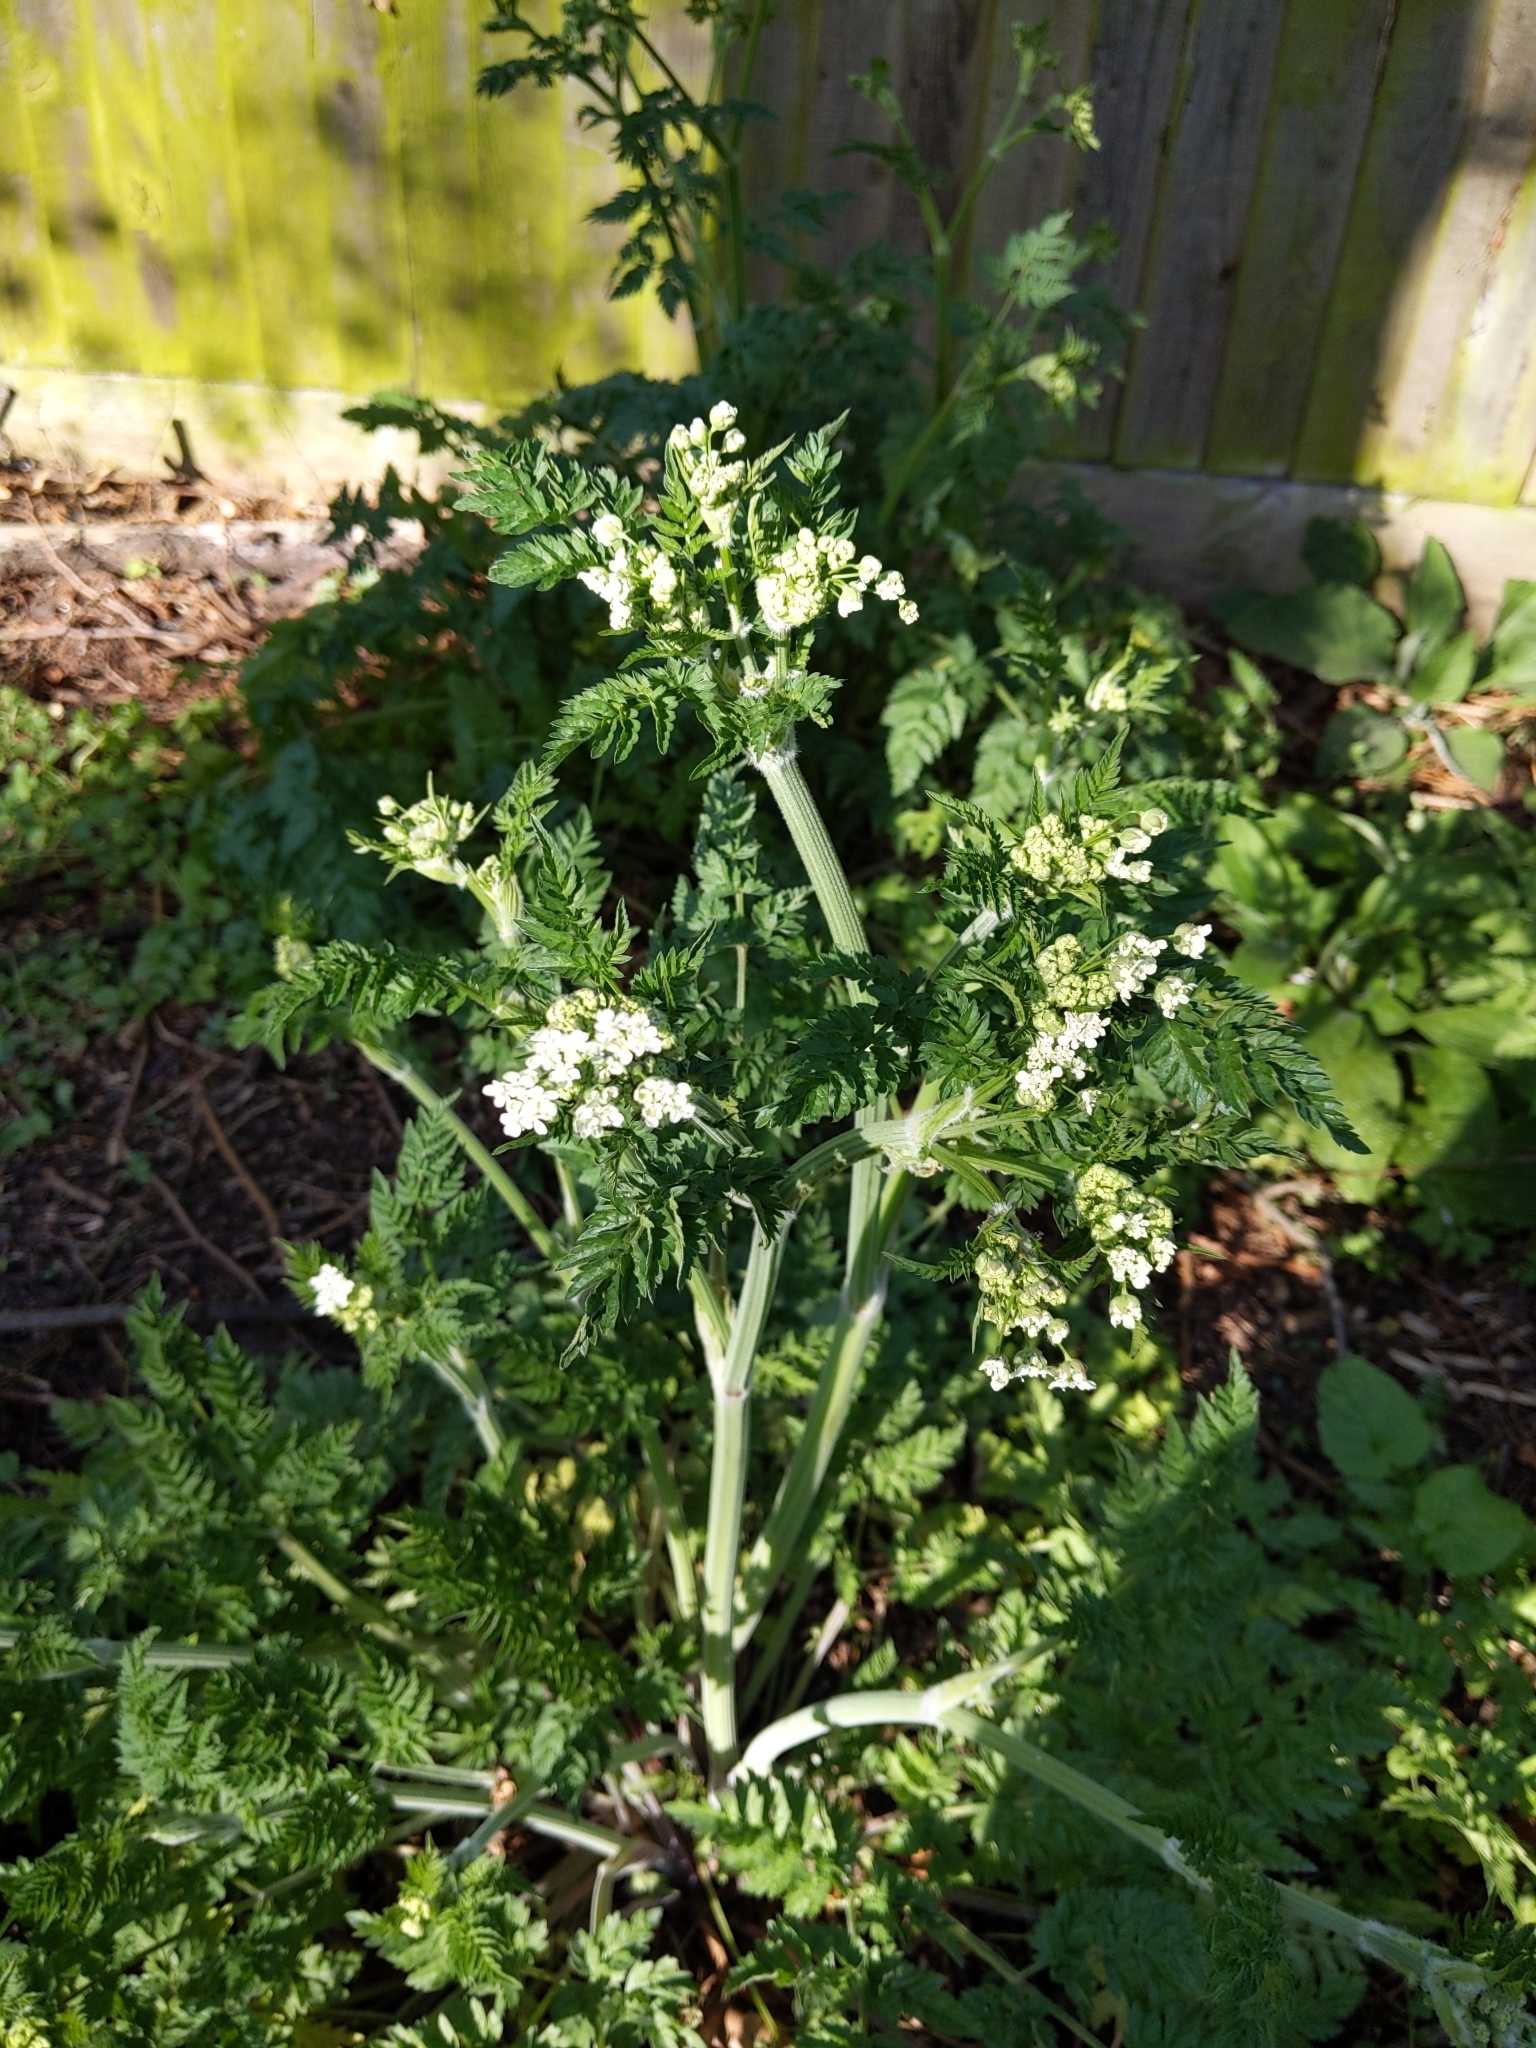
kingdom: Plantae
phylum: Tracheophyta
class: Magnoliopsida
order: Apiales
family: Apiaceae
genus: Anthriscus
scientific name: Anthriscus sylvestris
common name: Cow parsley
